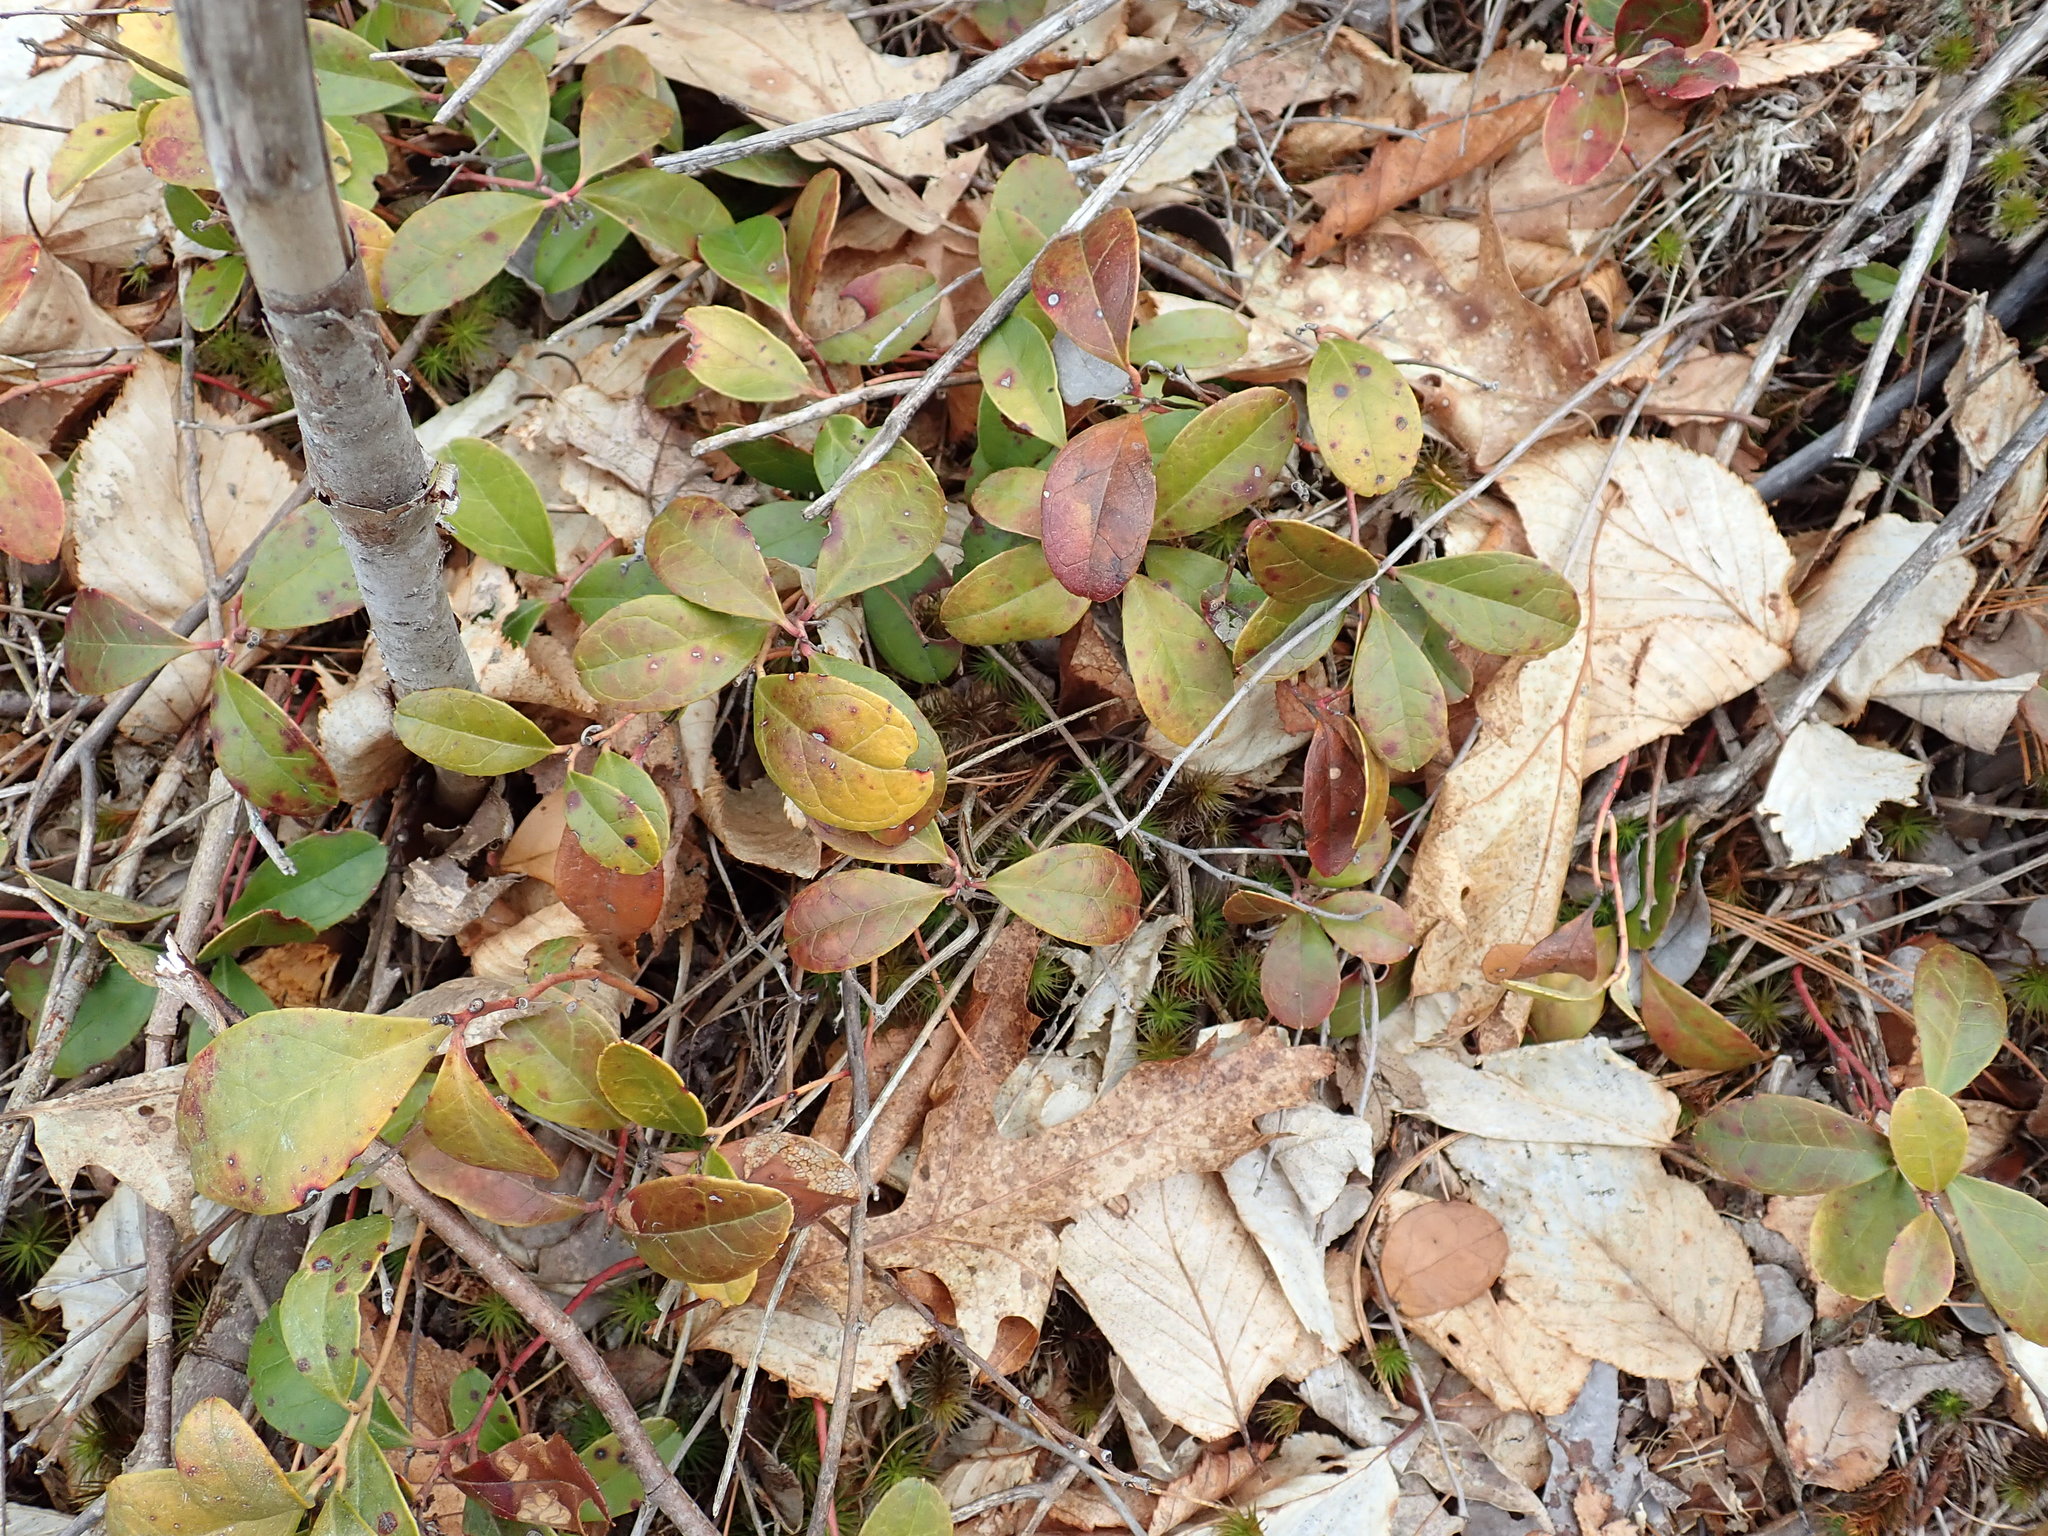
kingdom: Plantae
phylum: Tracheophyta
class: Magnoliopsida
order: Ericales
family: Ericaceae
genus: Gaultheria
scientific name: Gaultheria procumbens
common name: Checkerberry
